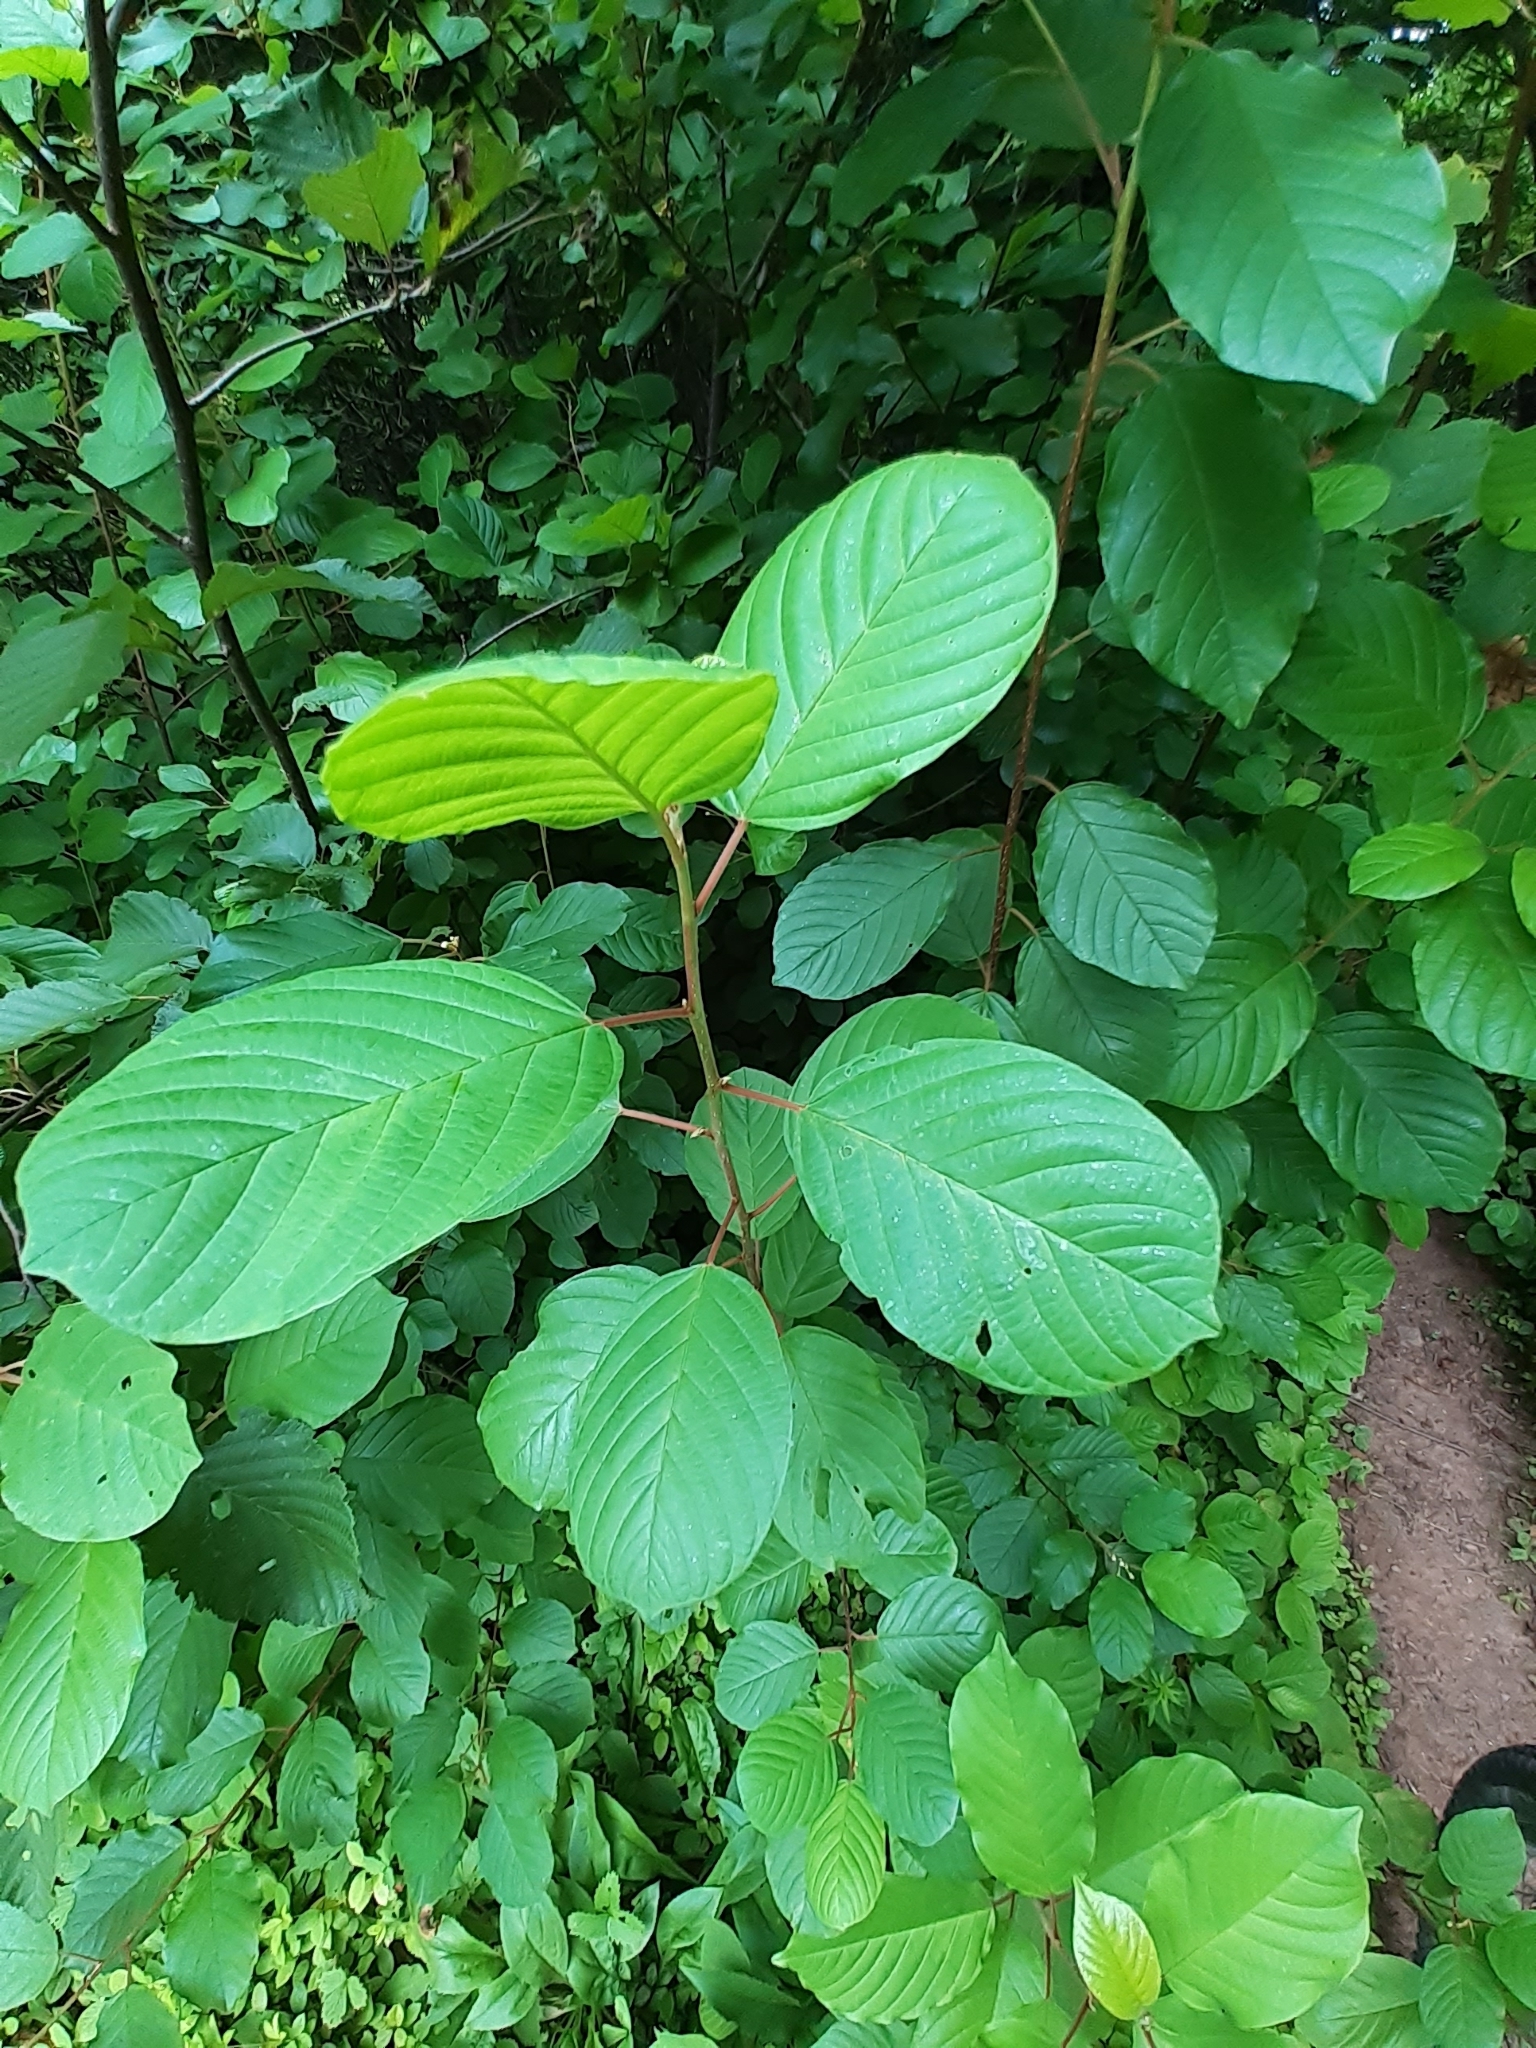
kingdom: Plantae
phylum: Tracheophyta
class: Magnoliopsida
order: Rosales
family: Rhamnaceae
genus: Frangula
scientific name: Frangula alnus
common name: Alder buckthorn
